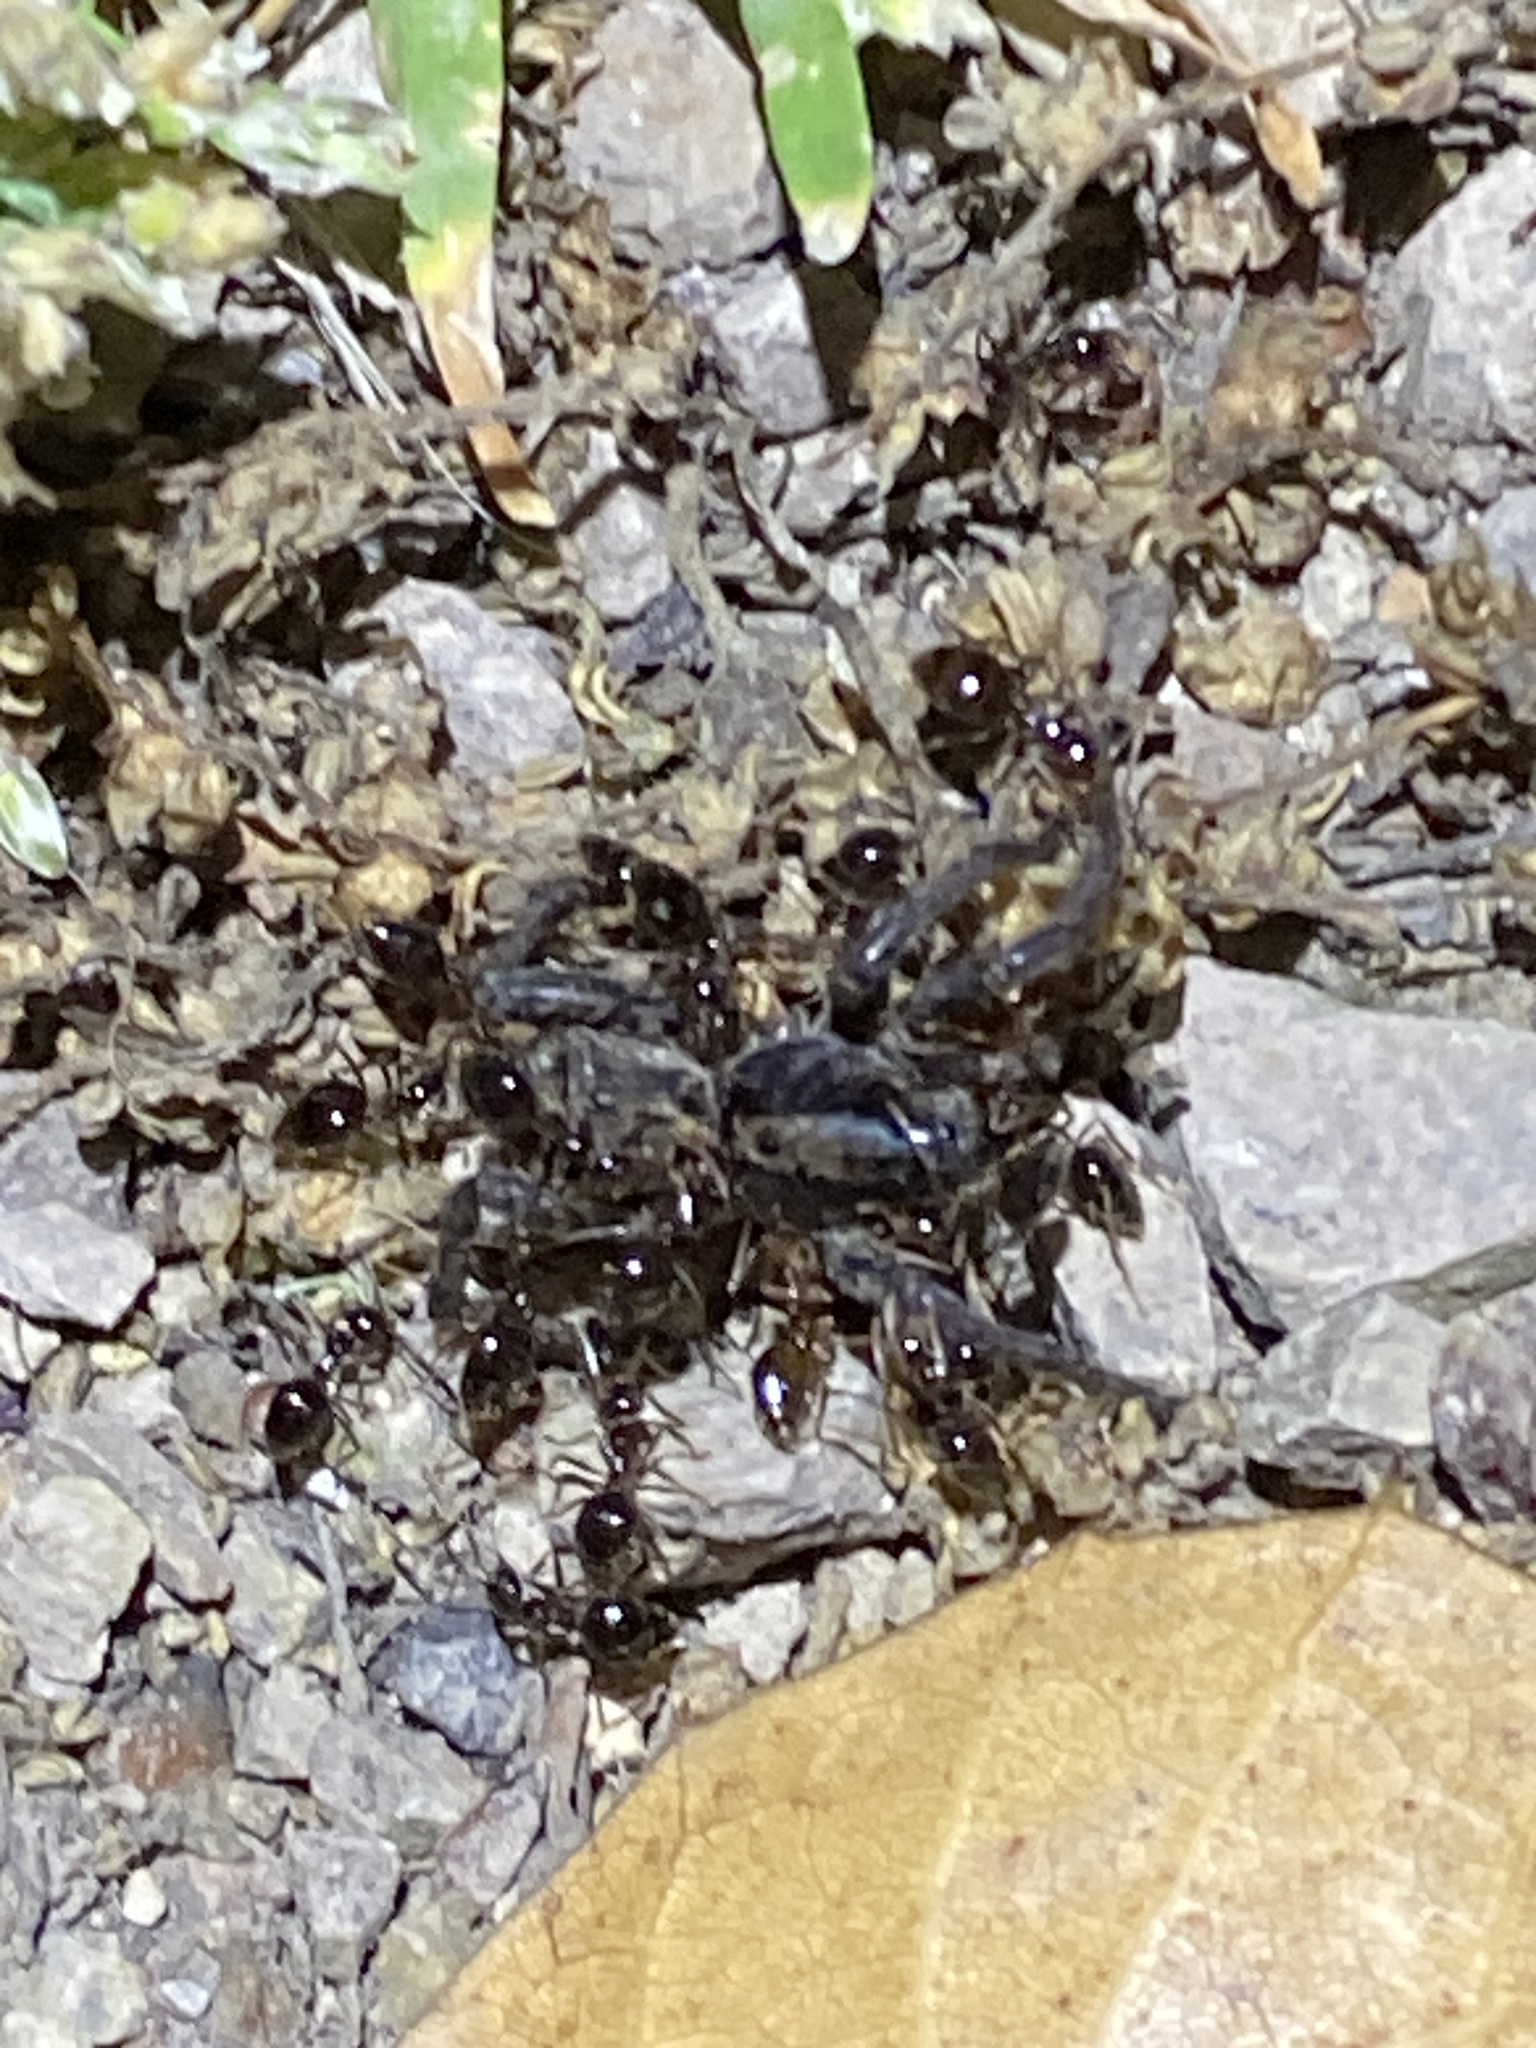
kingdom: Animalia
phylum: Arthropoda
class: Insecta
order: Hymenoptera
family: Formicidae
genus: Prenolepis
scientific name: Prenolepis imparis
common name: Small honey ant
